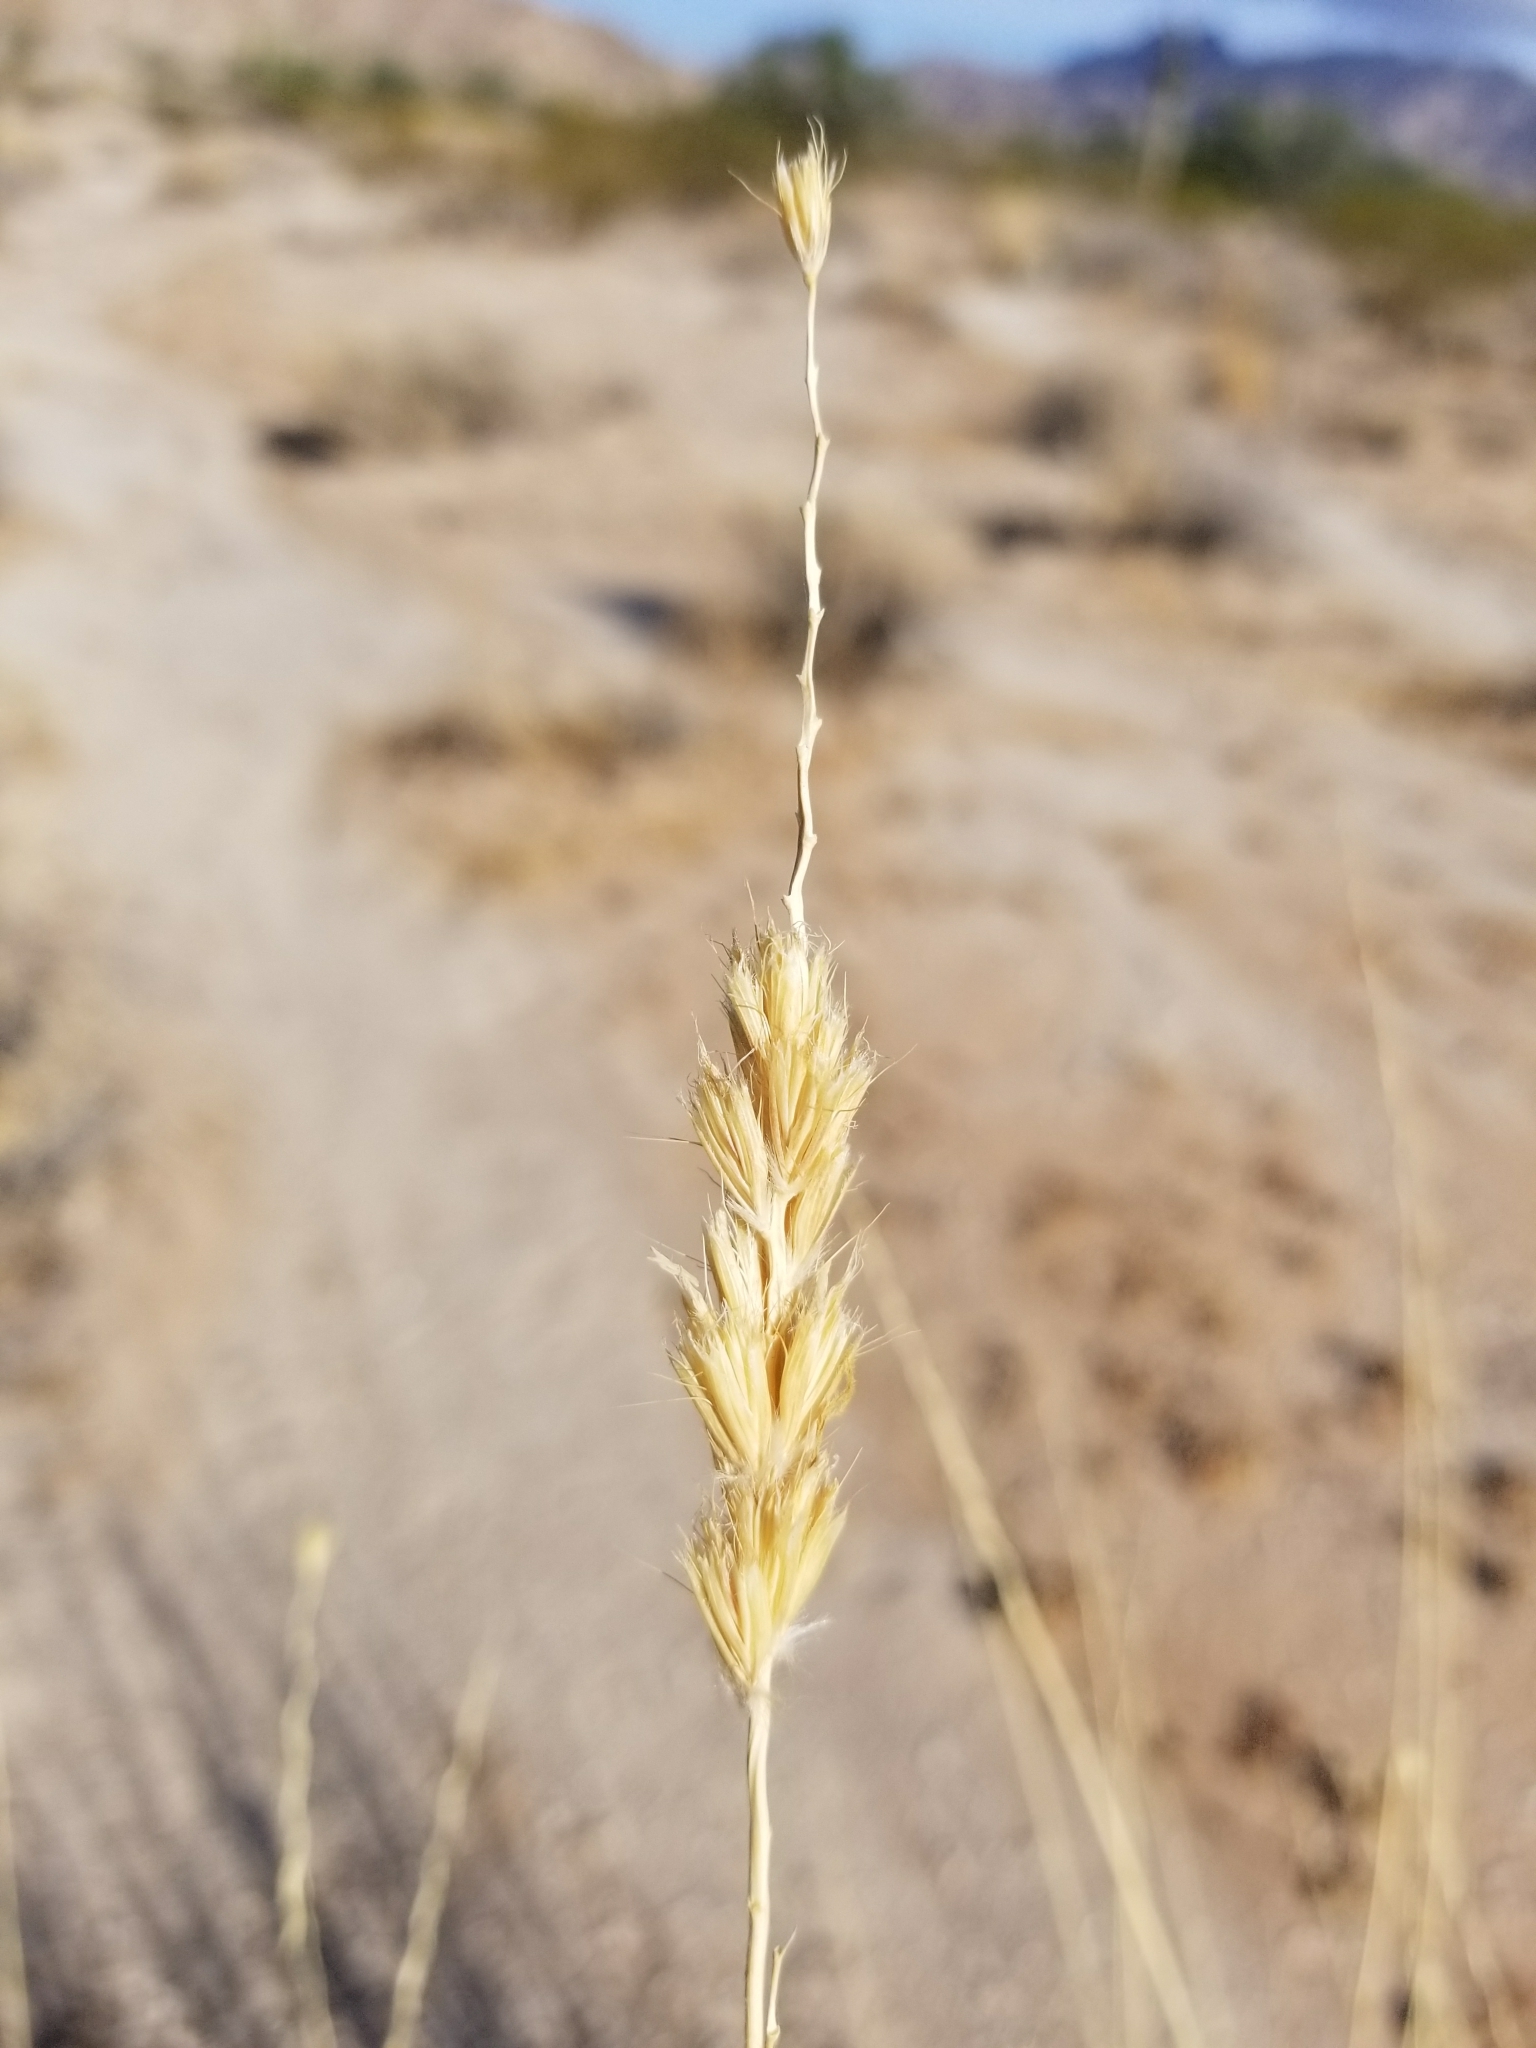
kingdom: Plantae
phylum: Tracheophyta
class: Liliopsida
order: Poales
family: Poaceae
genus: Hilaria
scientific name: Hilaria rigida
